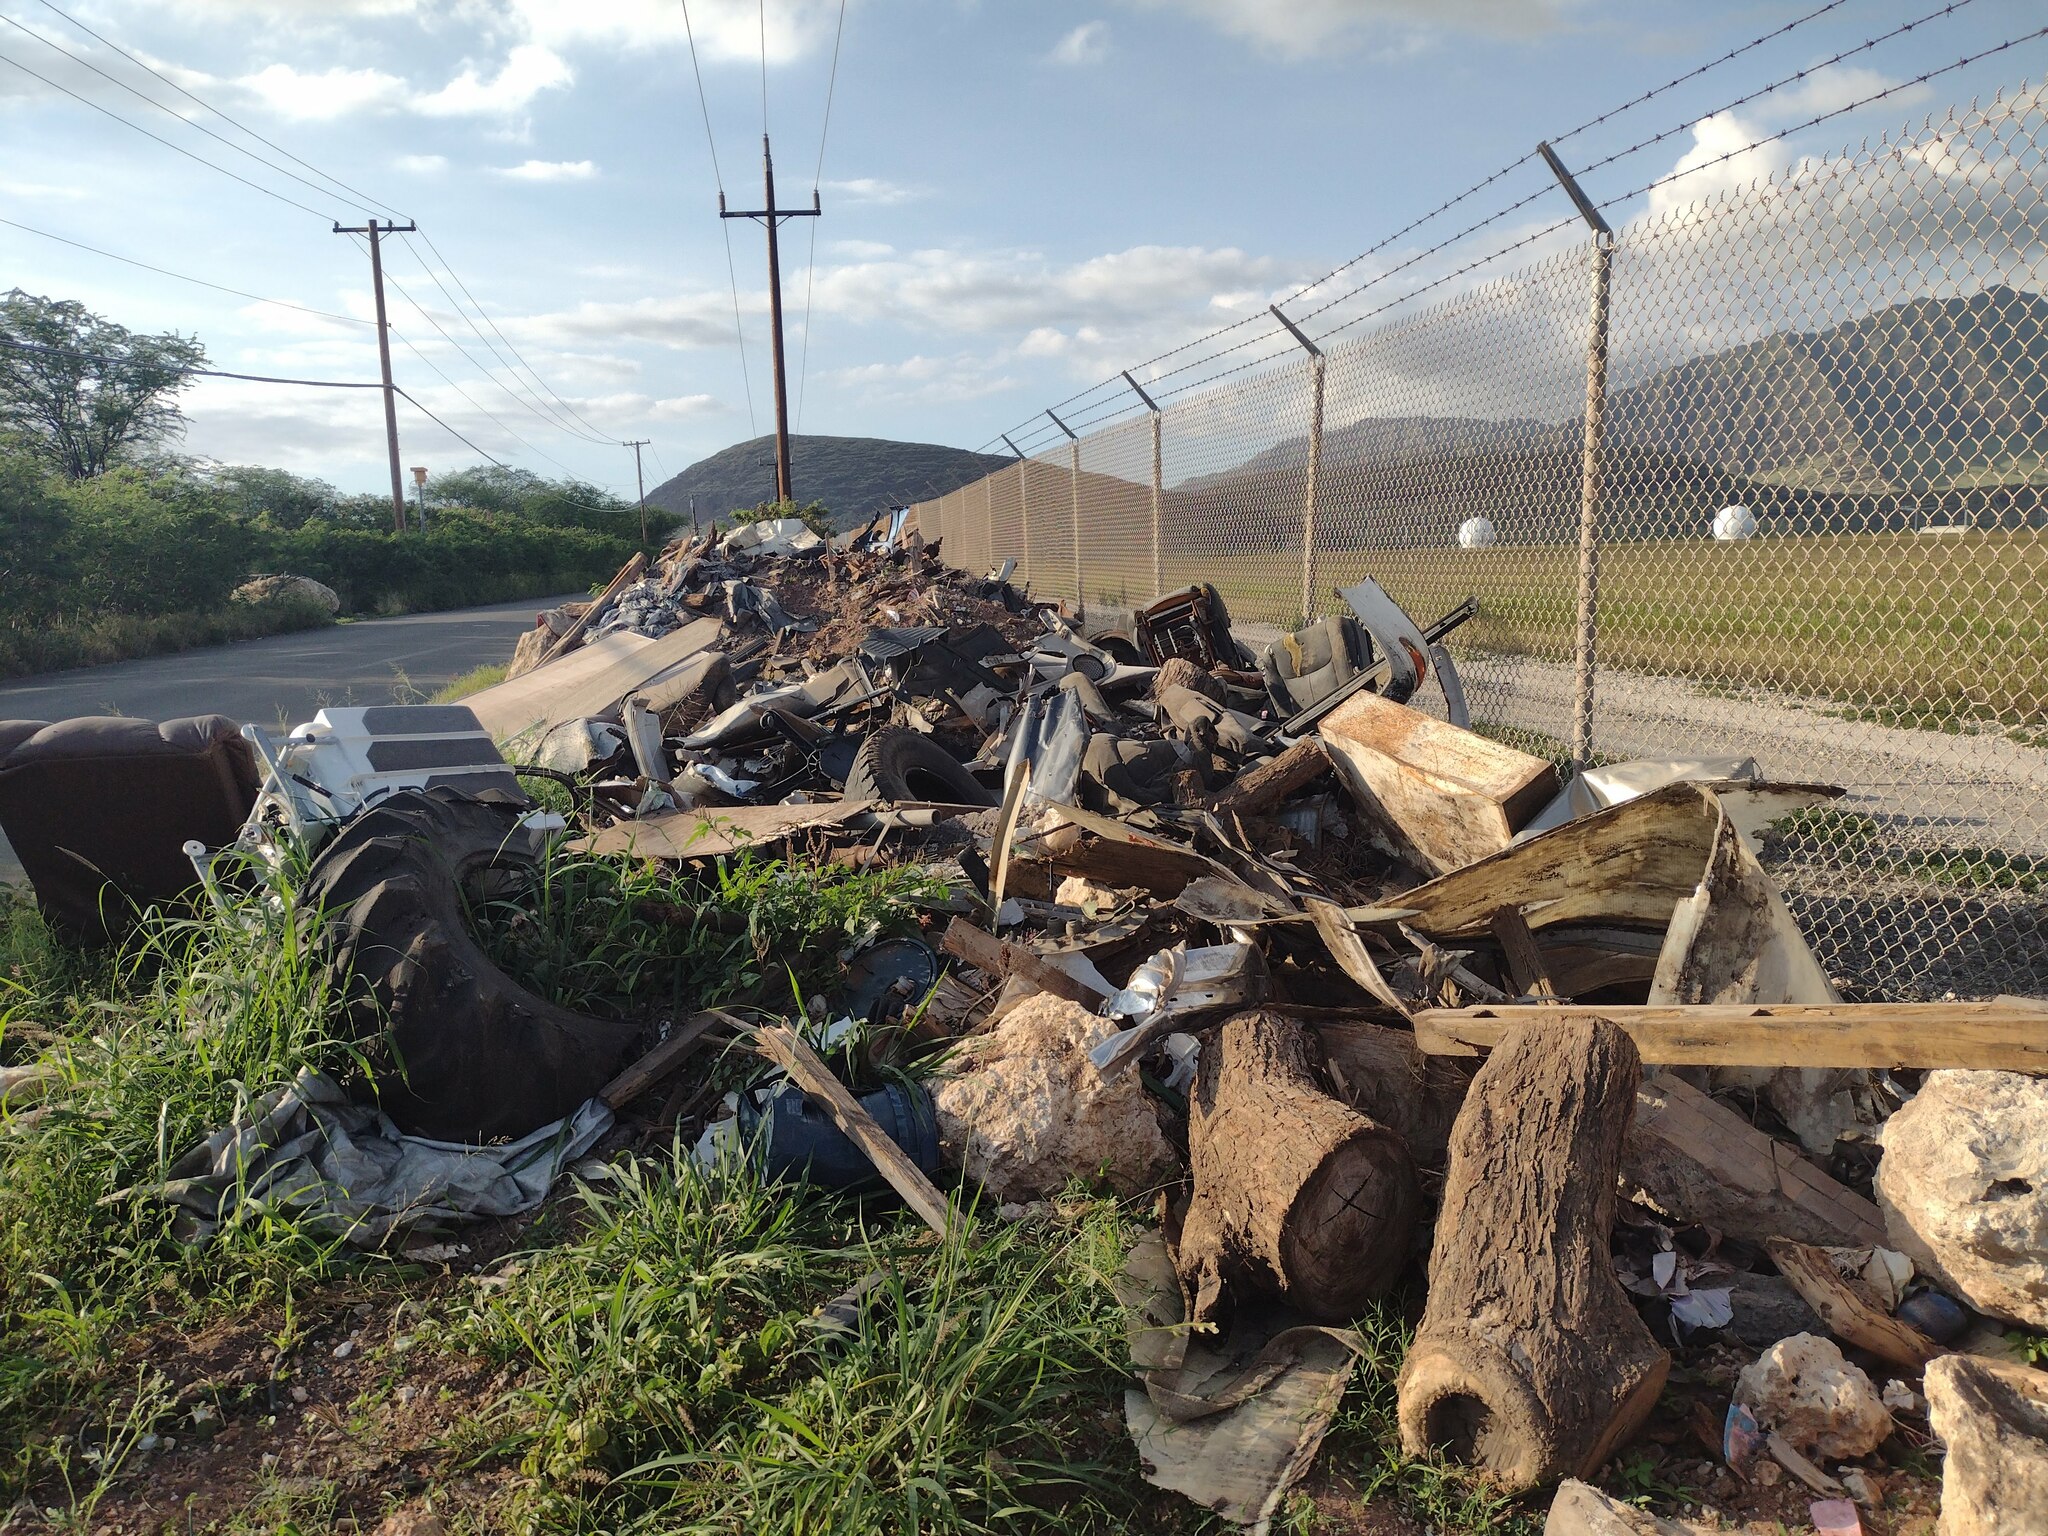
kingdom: Plantae
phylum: Tracheophyta
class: Liliopsida
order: Poales
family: Poaceae
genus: Cenchrus
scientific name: Cenchrus ciliaris
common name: Buffelgrass
